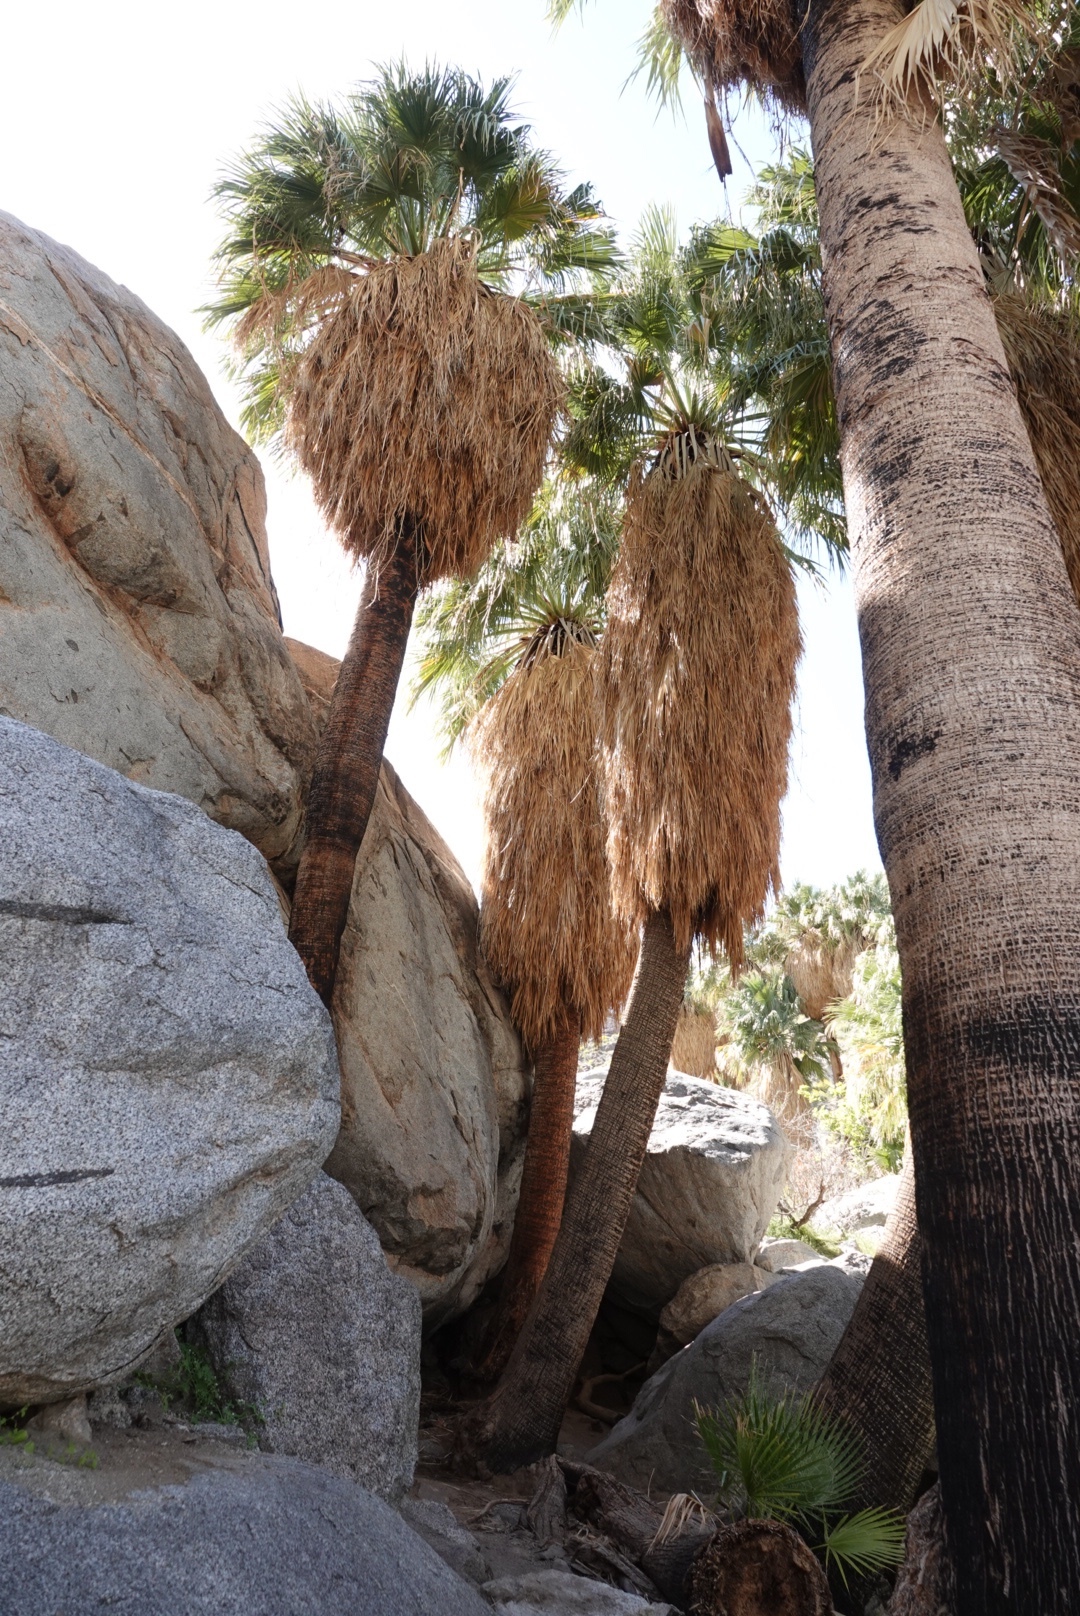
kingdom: Plantae
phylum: Tracheophyta
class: Liliopsida
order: Arecales
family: Arecaceae
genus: Washingtonia
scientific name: Washingtonia filifera
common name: California fan palm
